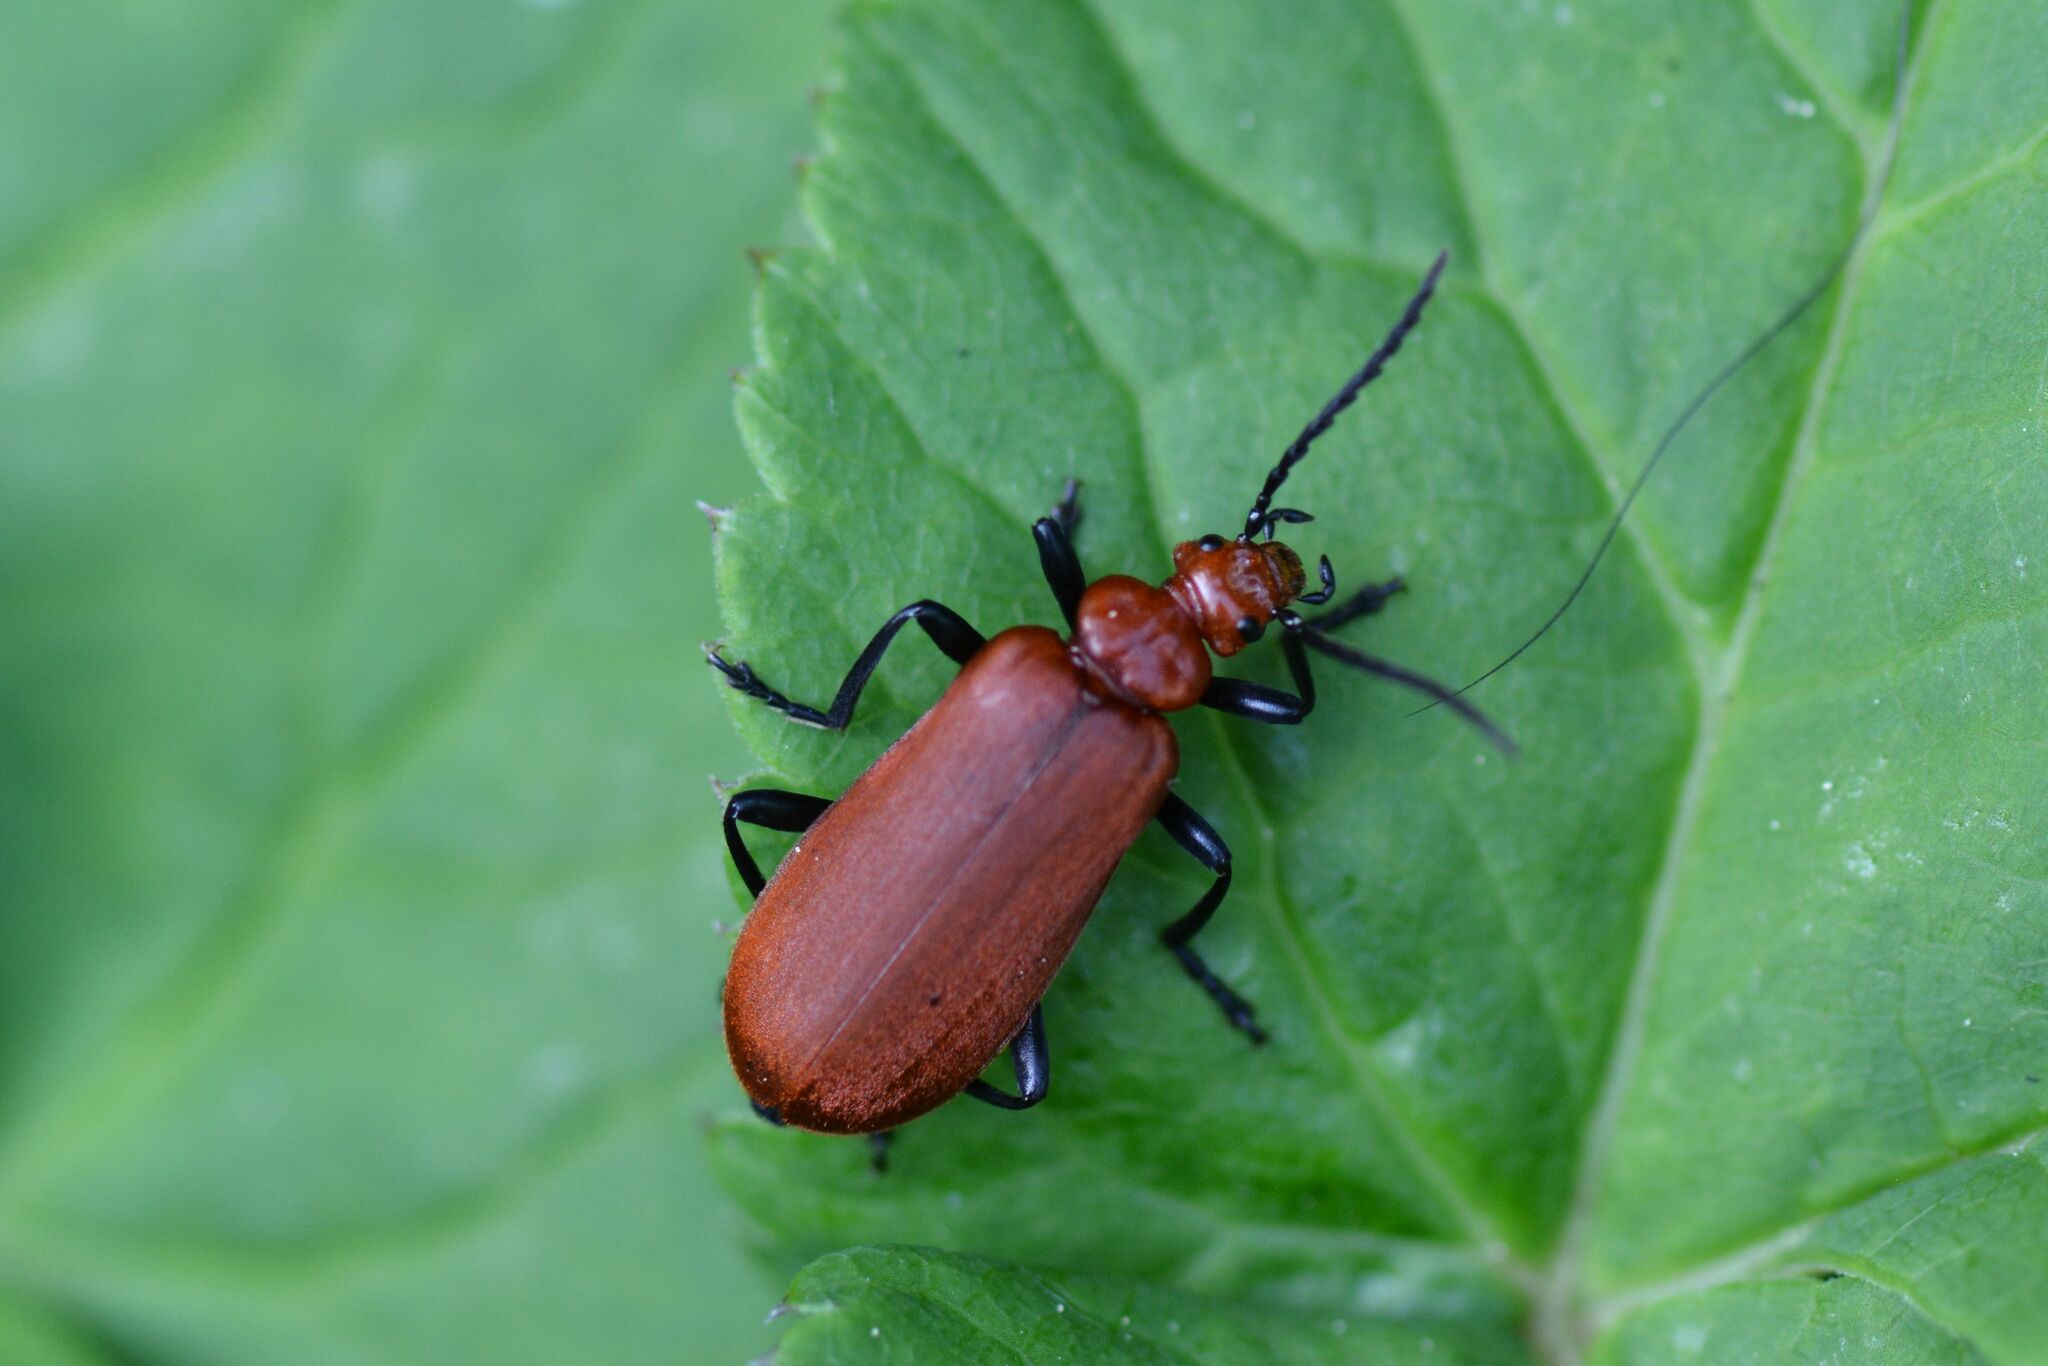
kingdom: Animalia
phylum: Arthropoda
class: Insecta
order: Coleoptera
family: Pyrochroidae
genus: Pyrochroa
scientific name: Pyrochroa serraticornis
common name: Red-headed cardinal beetle
